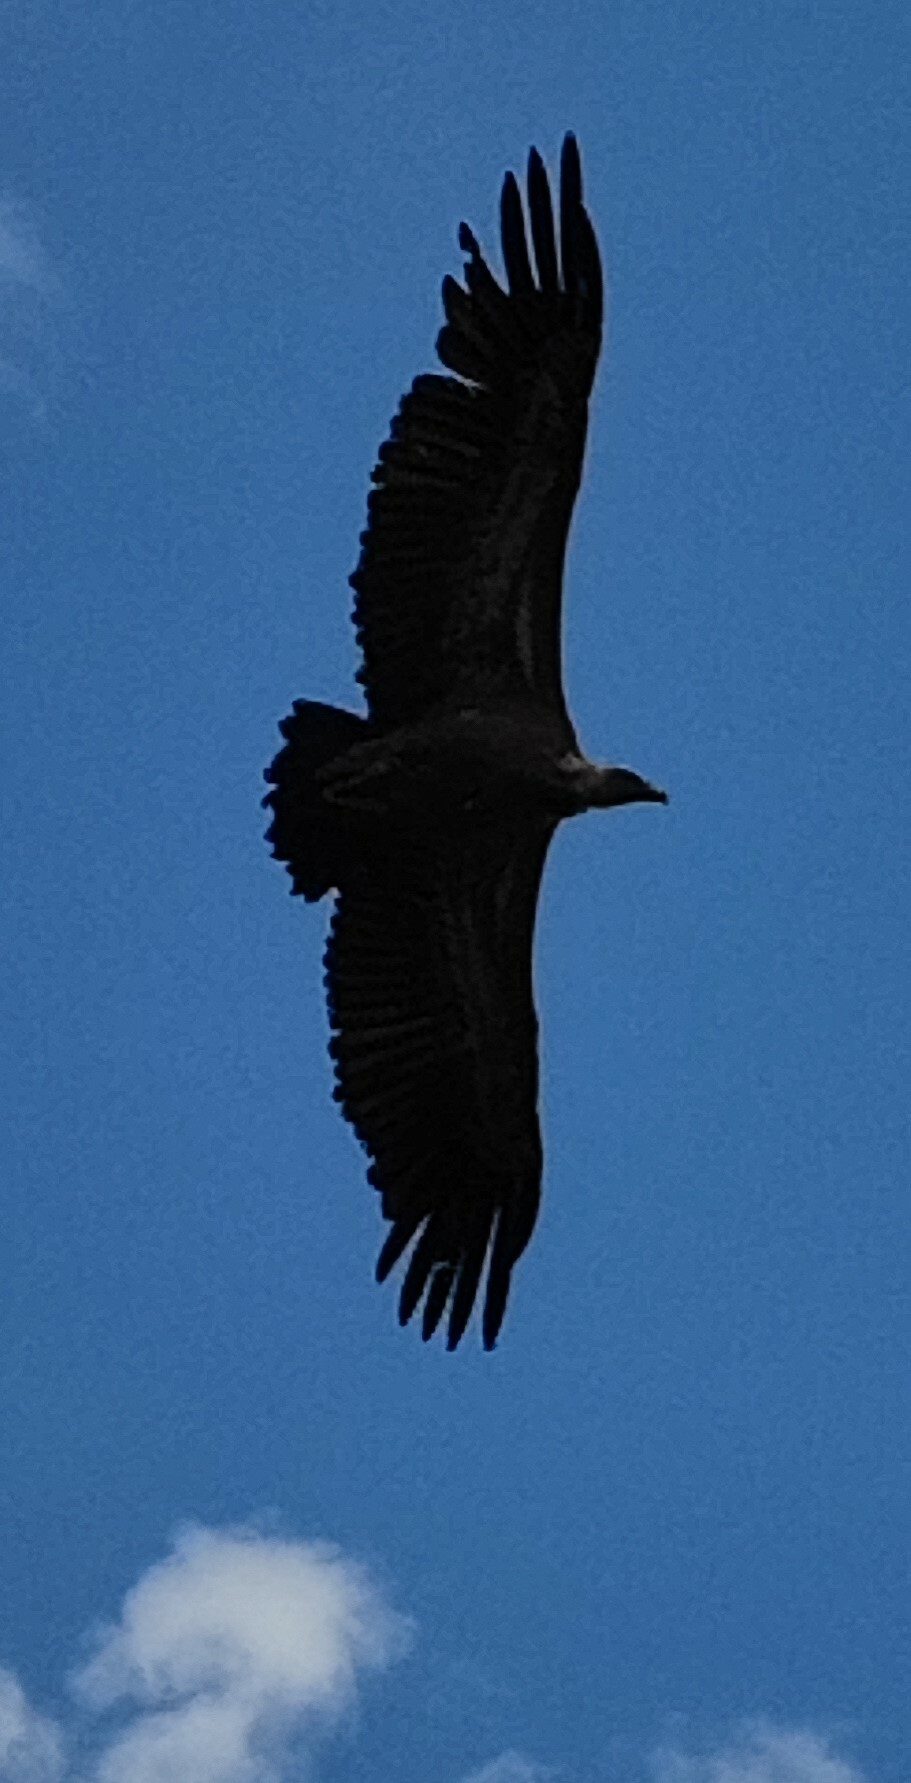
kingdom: Animalia
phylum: Chordata
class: Aves
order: Accipitriformes
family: Accipitridae
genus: Gyps
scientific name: Gyps fulvus
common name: Griffon vulture
